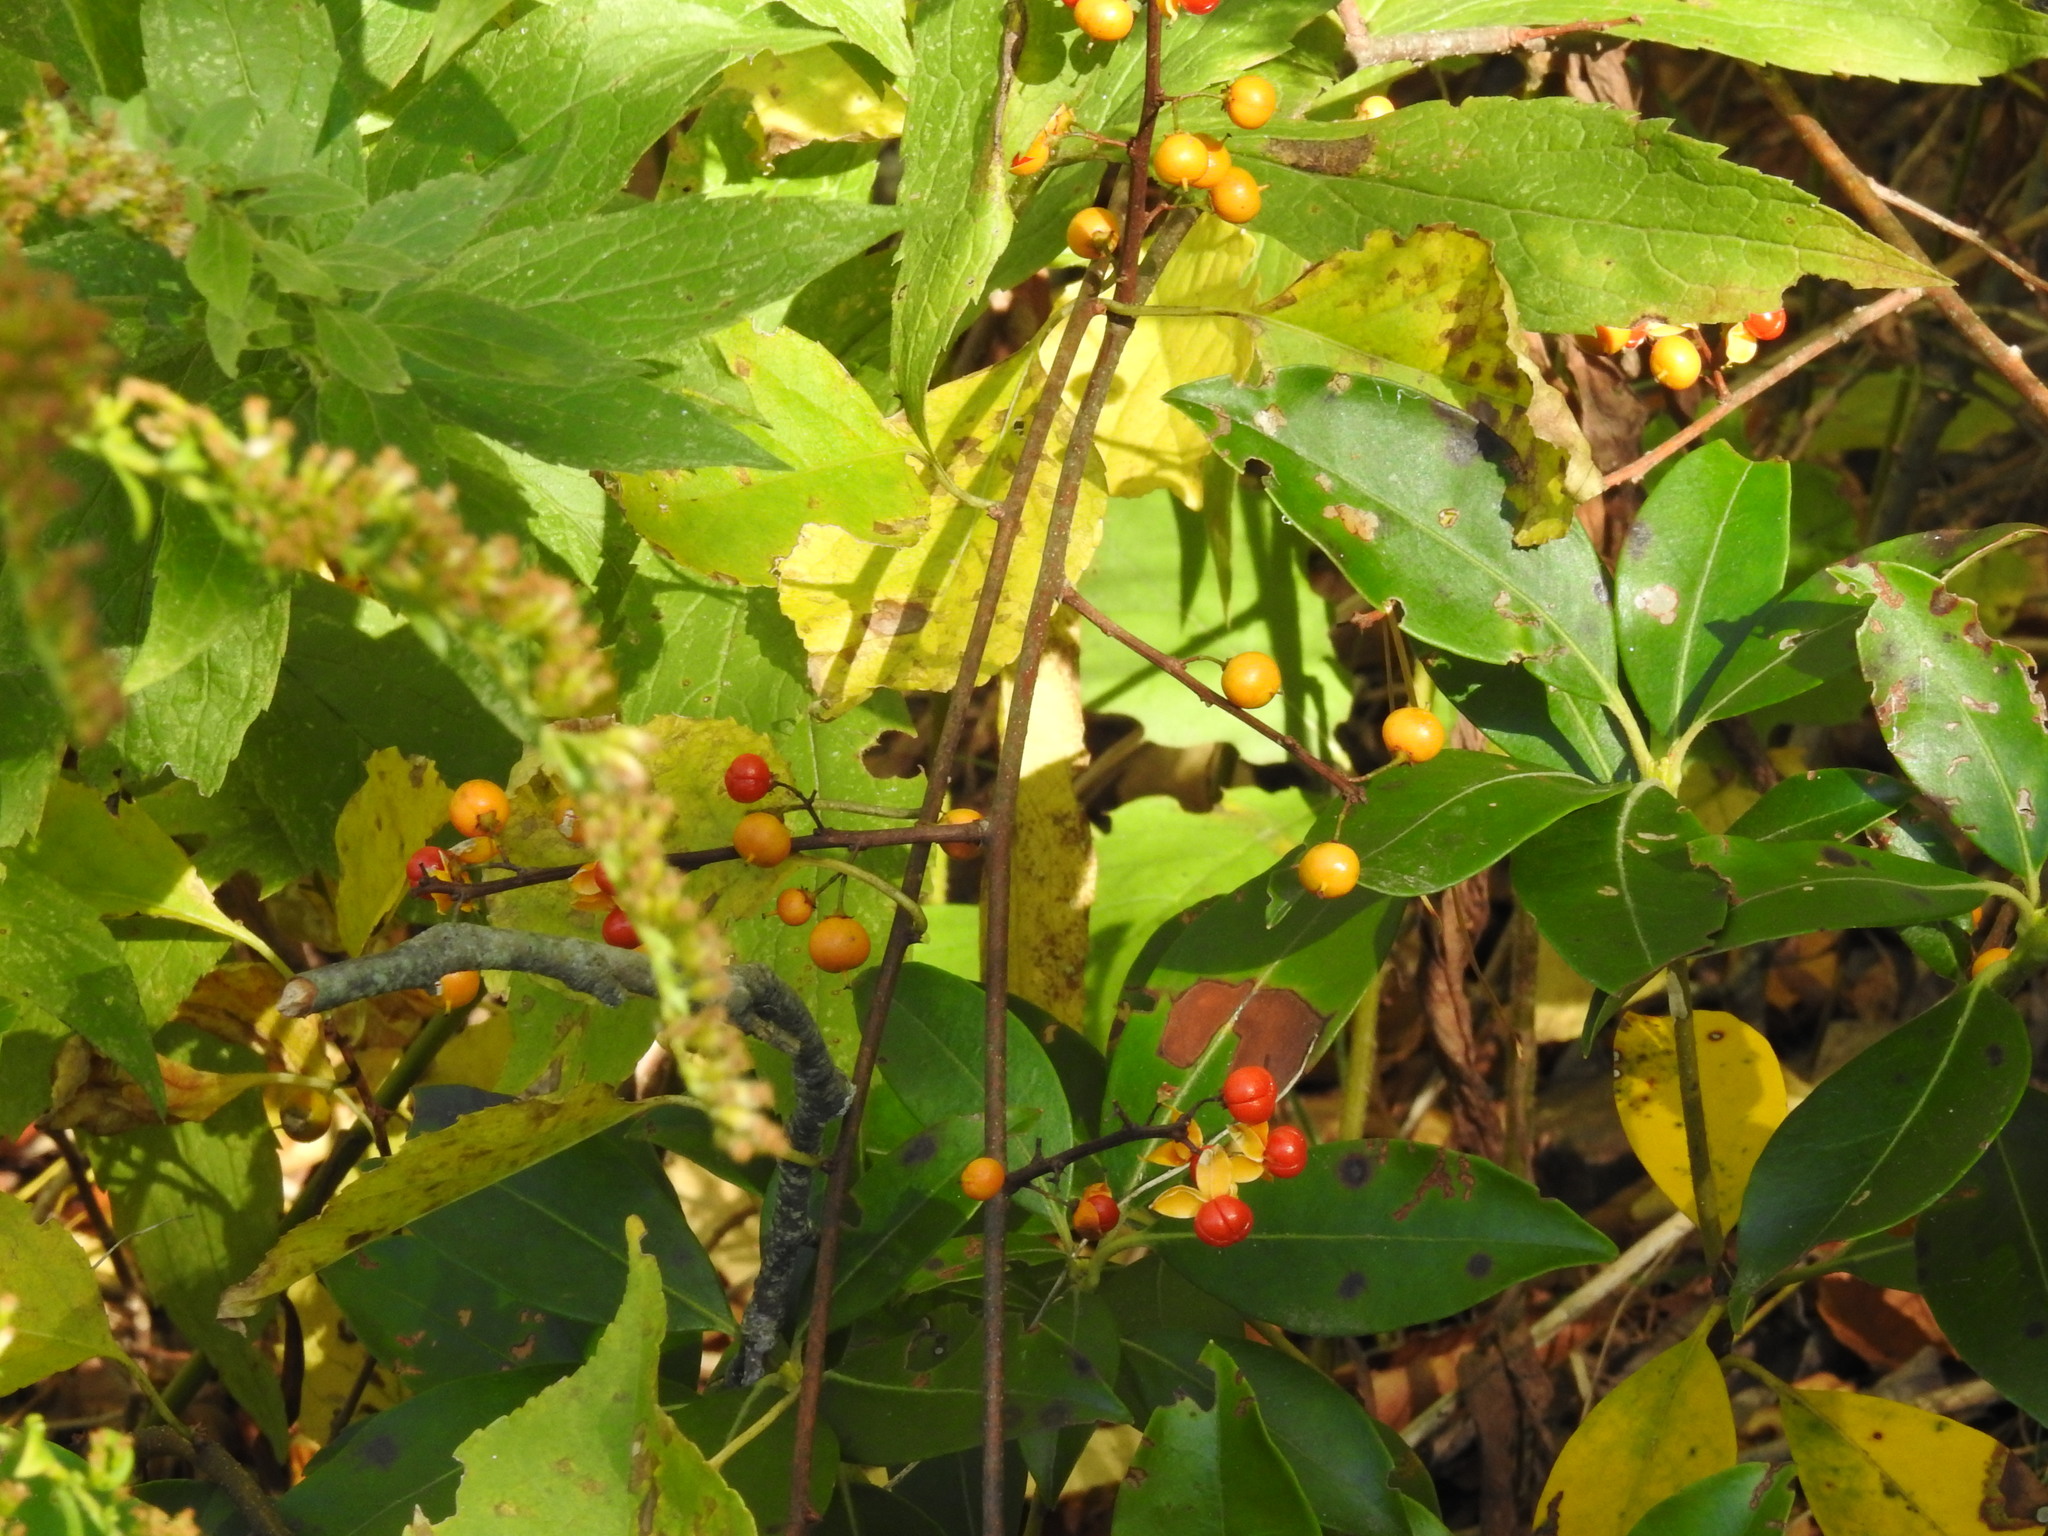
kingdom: Plantae
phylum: Tracheophyta
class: Magnoliopsida
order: Celastrales
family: Celastraceae
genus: Celastrus
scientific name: Celastrus orbiculatus
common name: Oriental bittersweet
